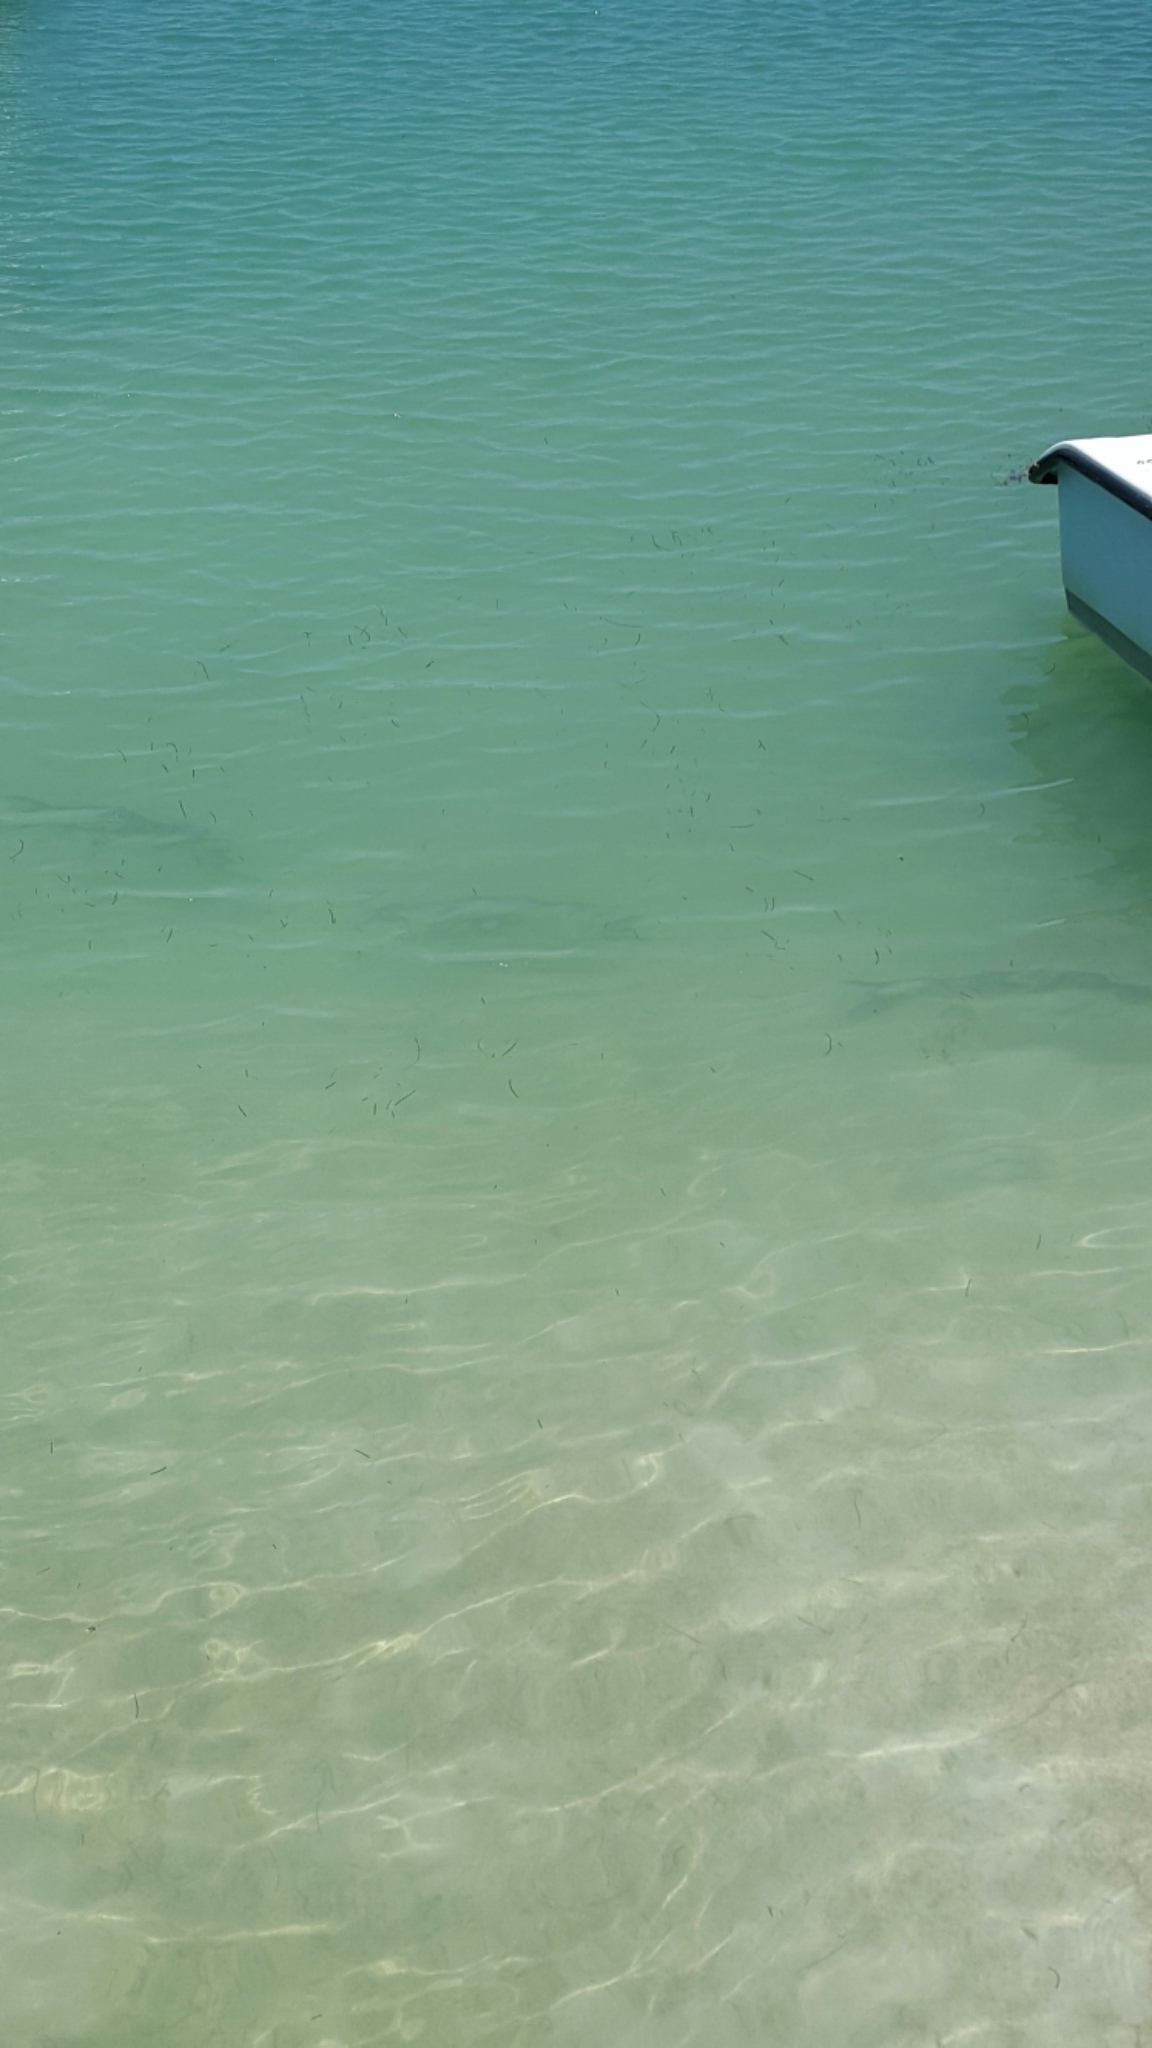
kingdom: Animalia
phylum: Chordata
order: Elopiformes
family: Megalopidae
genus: Megalops
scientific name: Megalops atlanticus
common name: Tarpon
